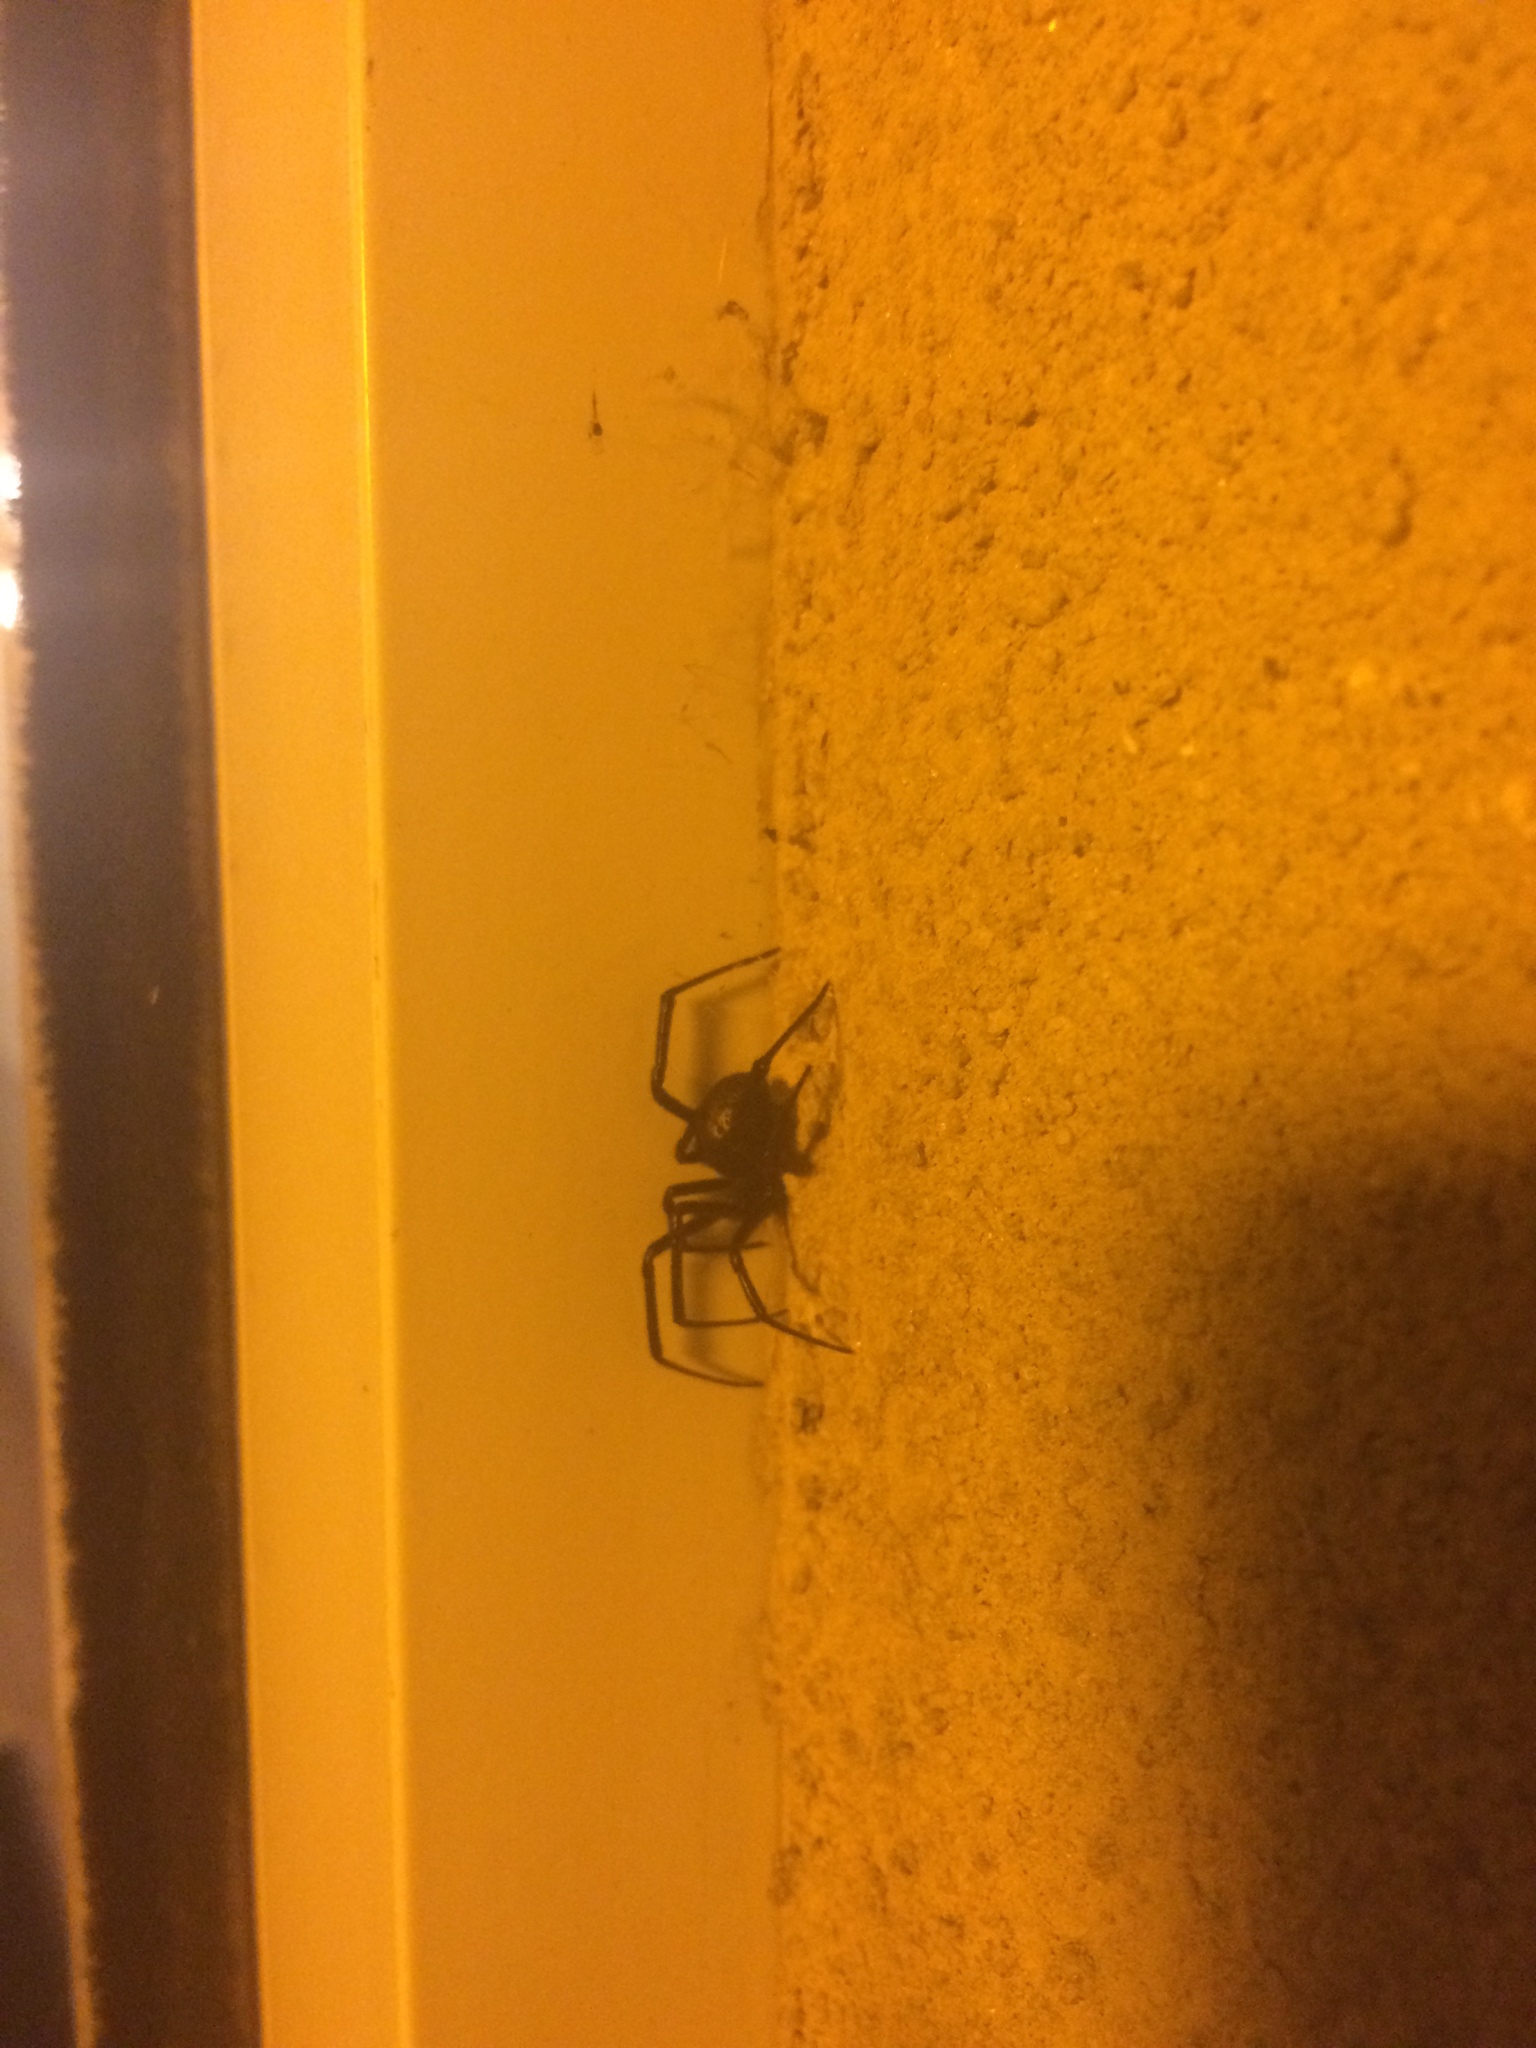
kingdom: Animalia
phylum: Arthropoda
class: Arachnida
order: Araneae
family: Theridiidae
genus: Latrodectus
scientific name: Latrodectus hesperus
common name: Western black widow
